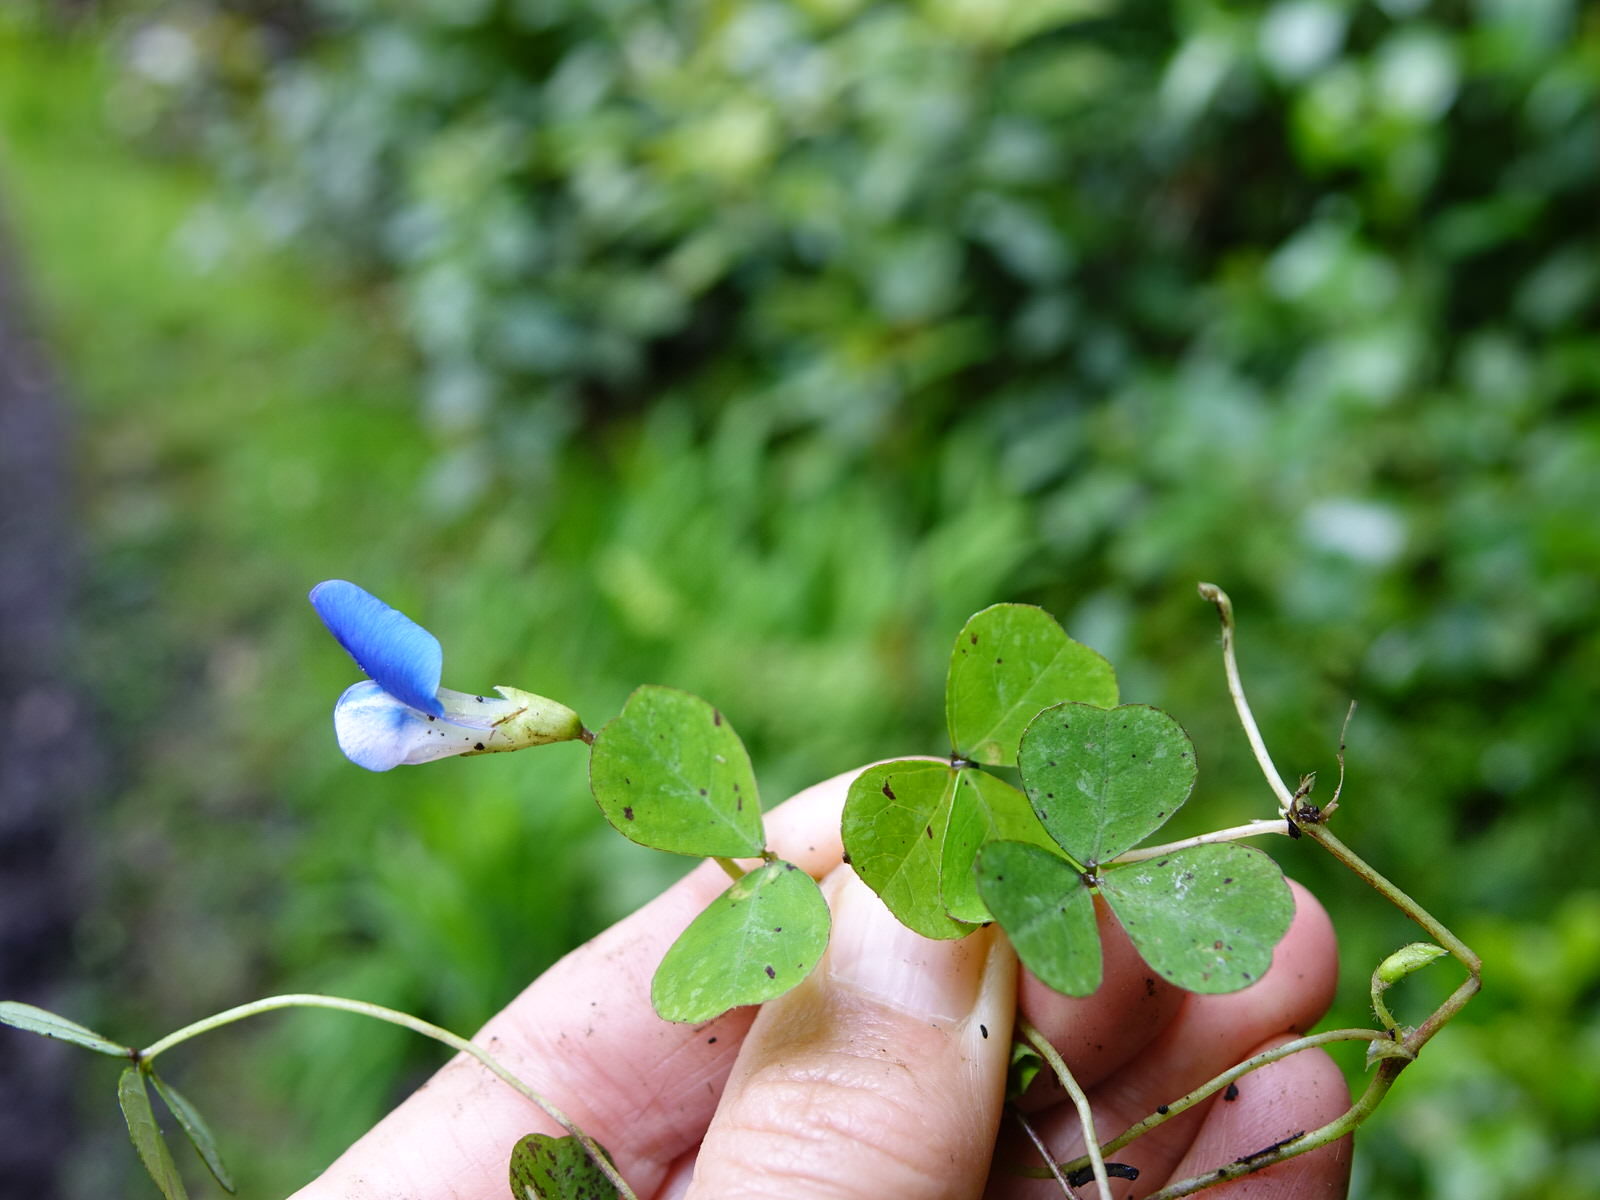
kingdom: Plantae
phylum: Tracheophyta
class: Magnoliopsida
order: Fabales
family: Fabaceae
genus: Parochetus
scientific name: Parochetus communis
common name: Blue oxalis
